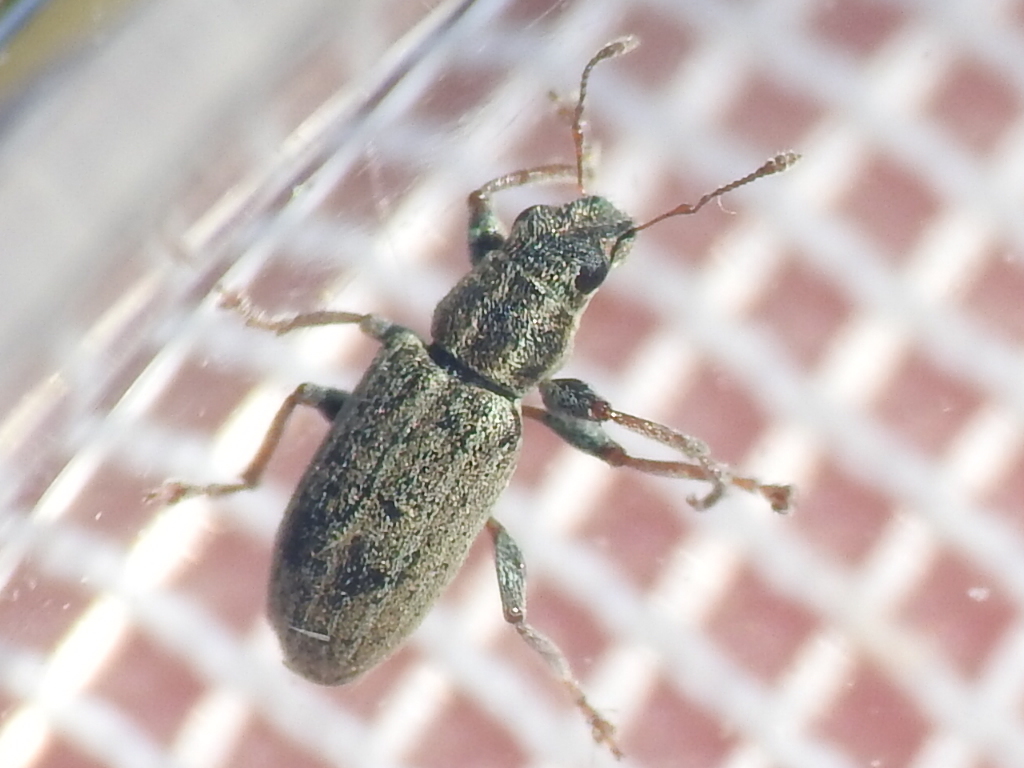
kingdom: Animalia
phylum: Arthropoda
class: Insecta
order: Coleoptera
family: Curculionidae
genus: Sitona
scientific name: Sitona lineatus
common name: Weevil
